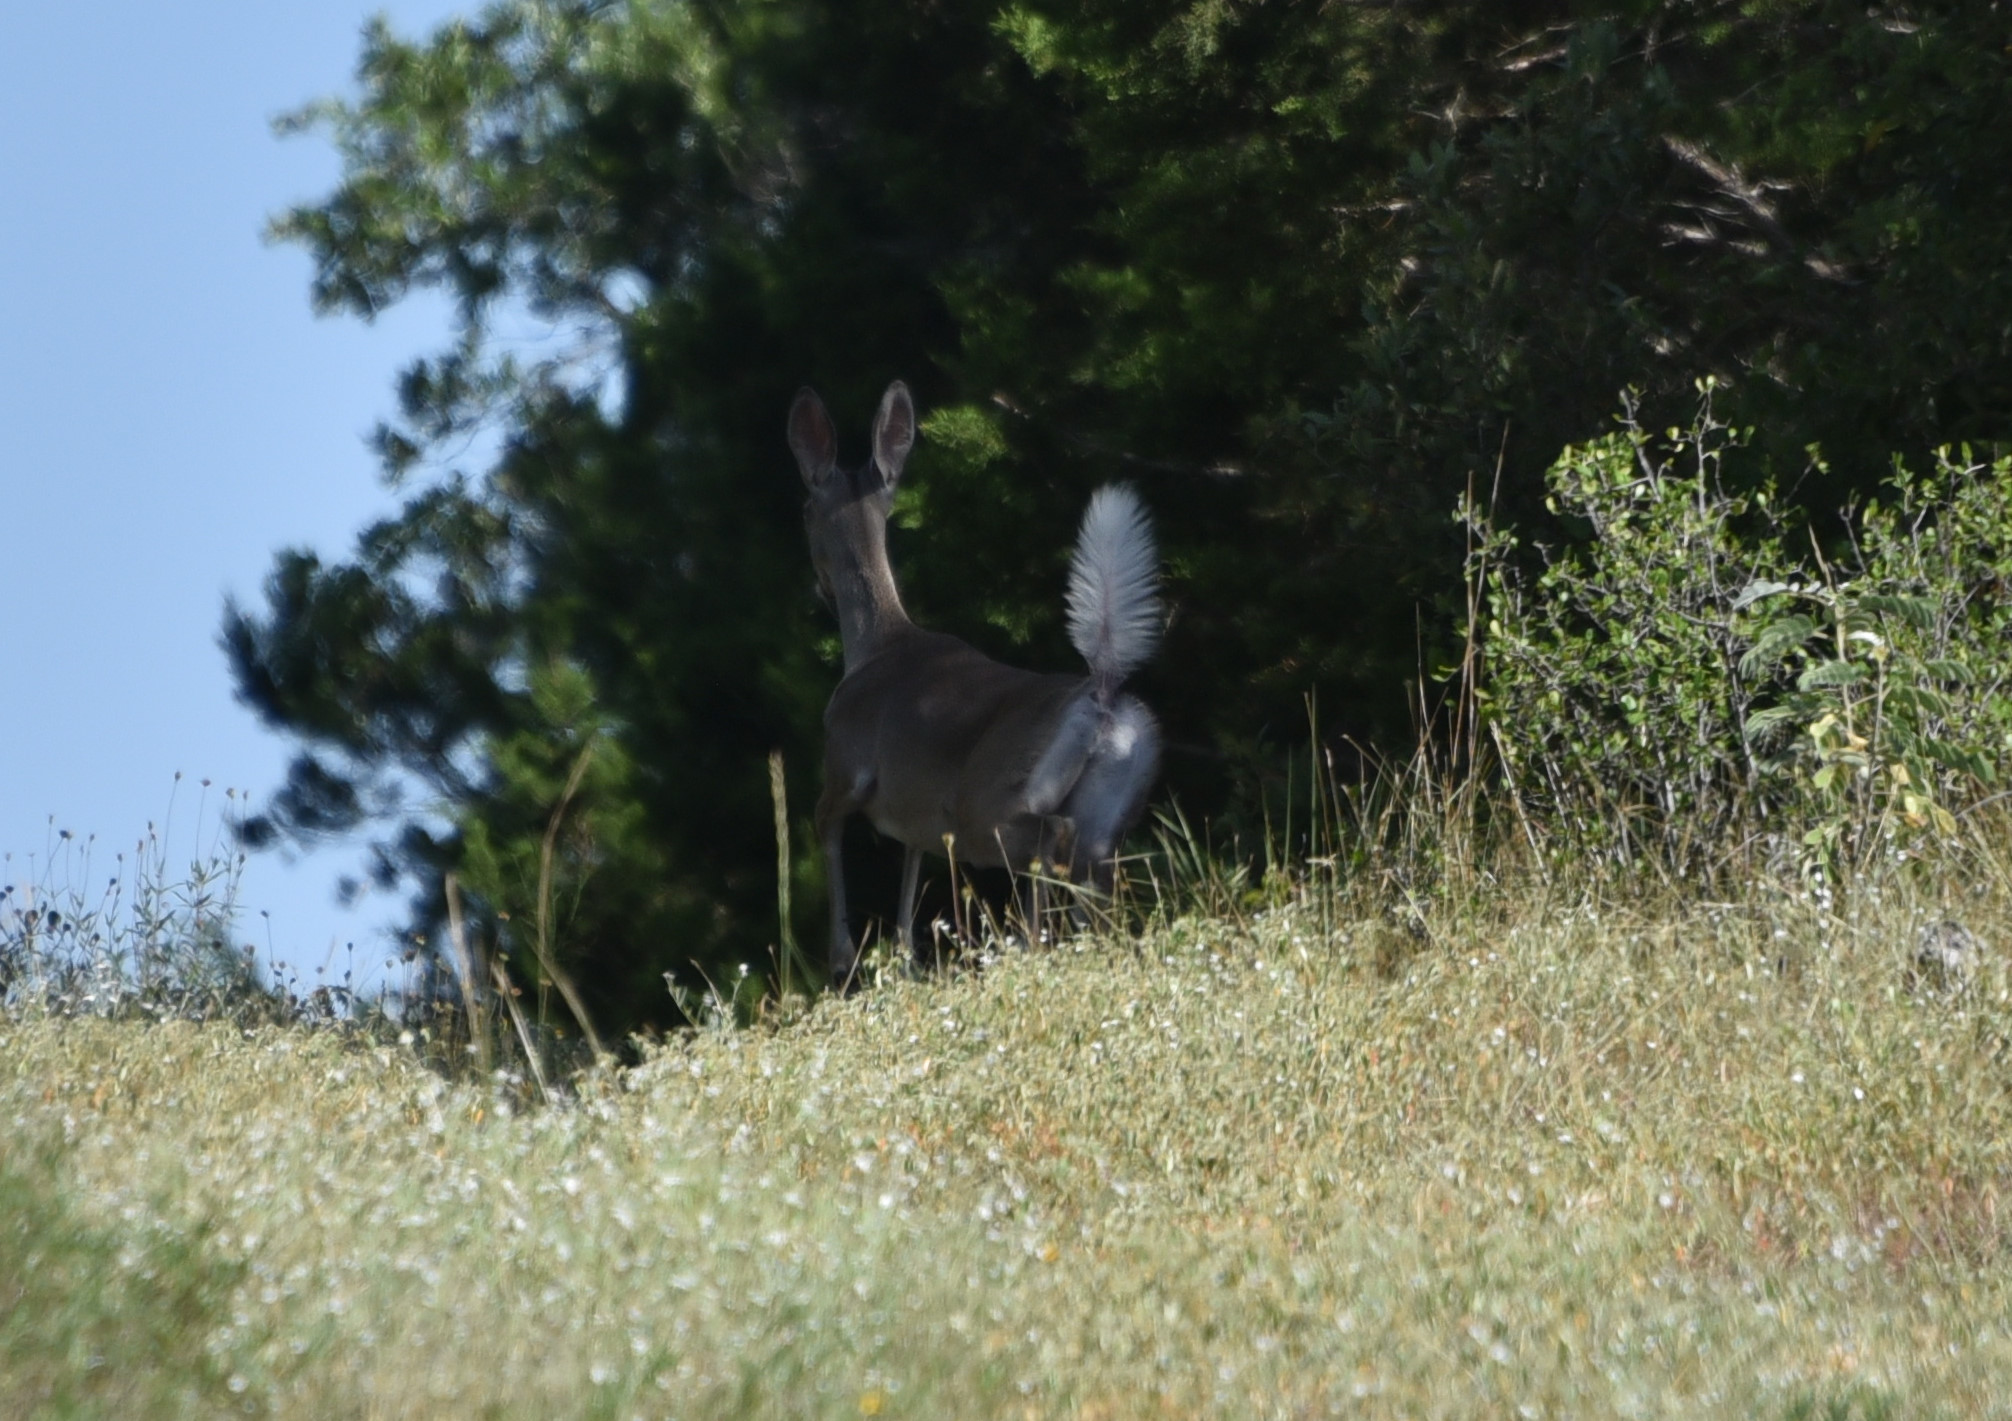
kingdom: Animalia
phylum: Chordata
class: Mammalia
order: Artiodactyla
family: Cervidae
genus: Odocoileus
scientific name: Odocoileus virginianus
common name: White-tailed deer
